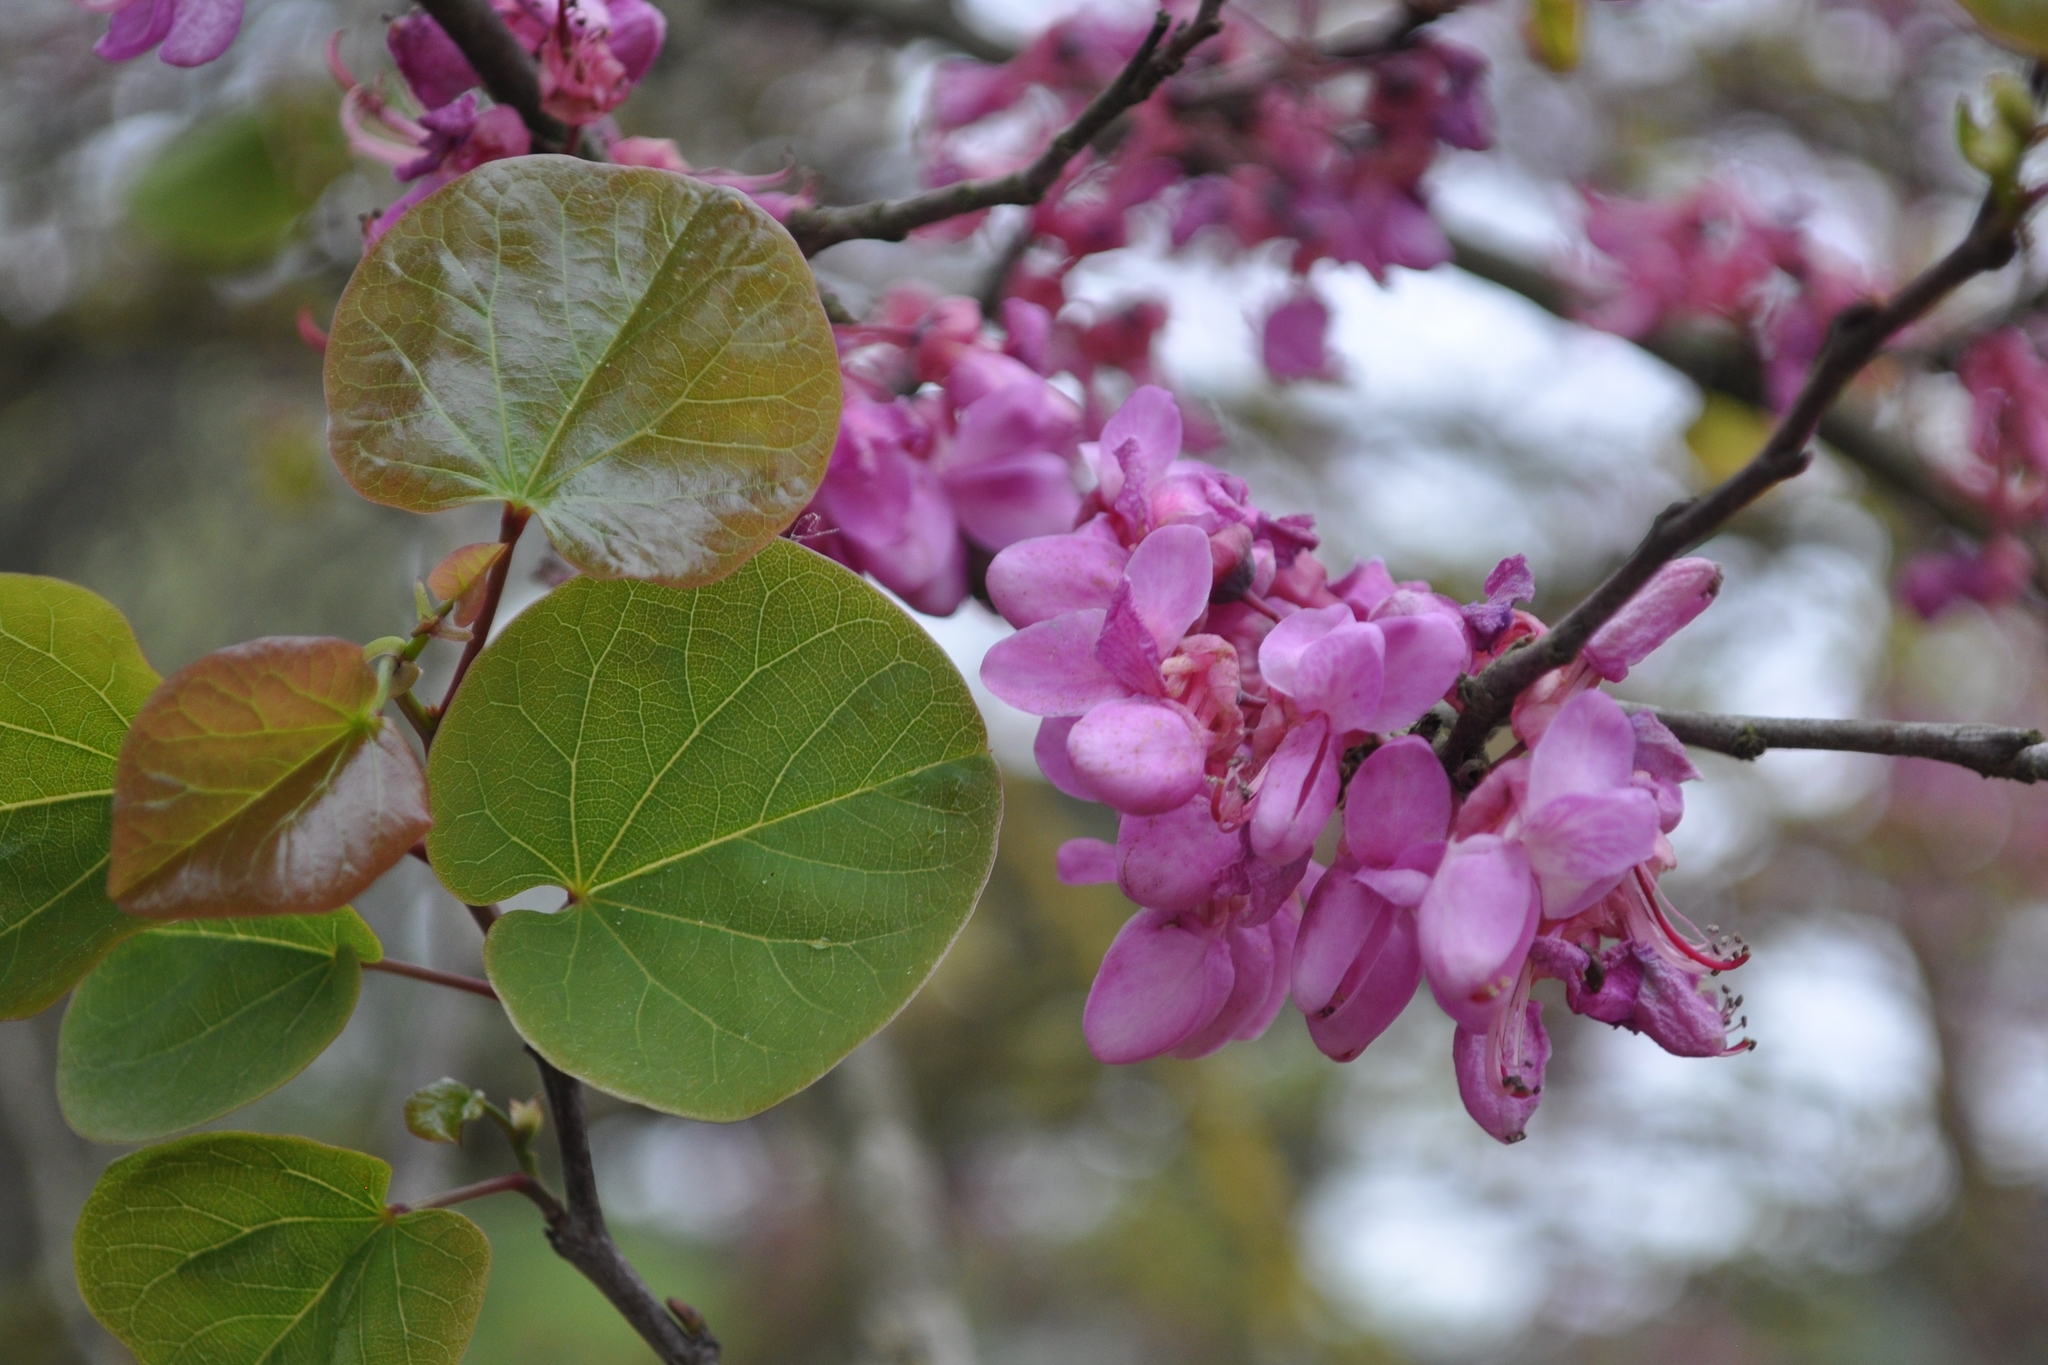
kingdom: Plantae
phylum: Tracheophyta
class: Magnoliopsida
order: Fabales
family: Fabaceae
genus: Cercis
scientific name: Cercis siliquastrum
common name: Judas tree
